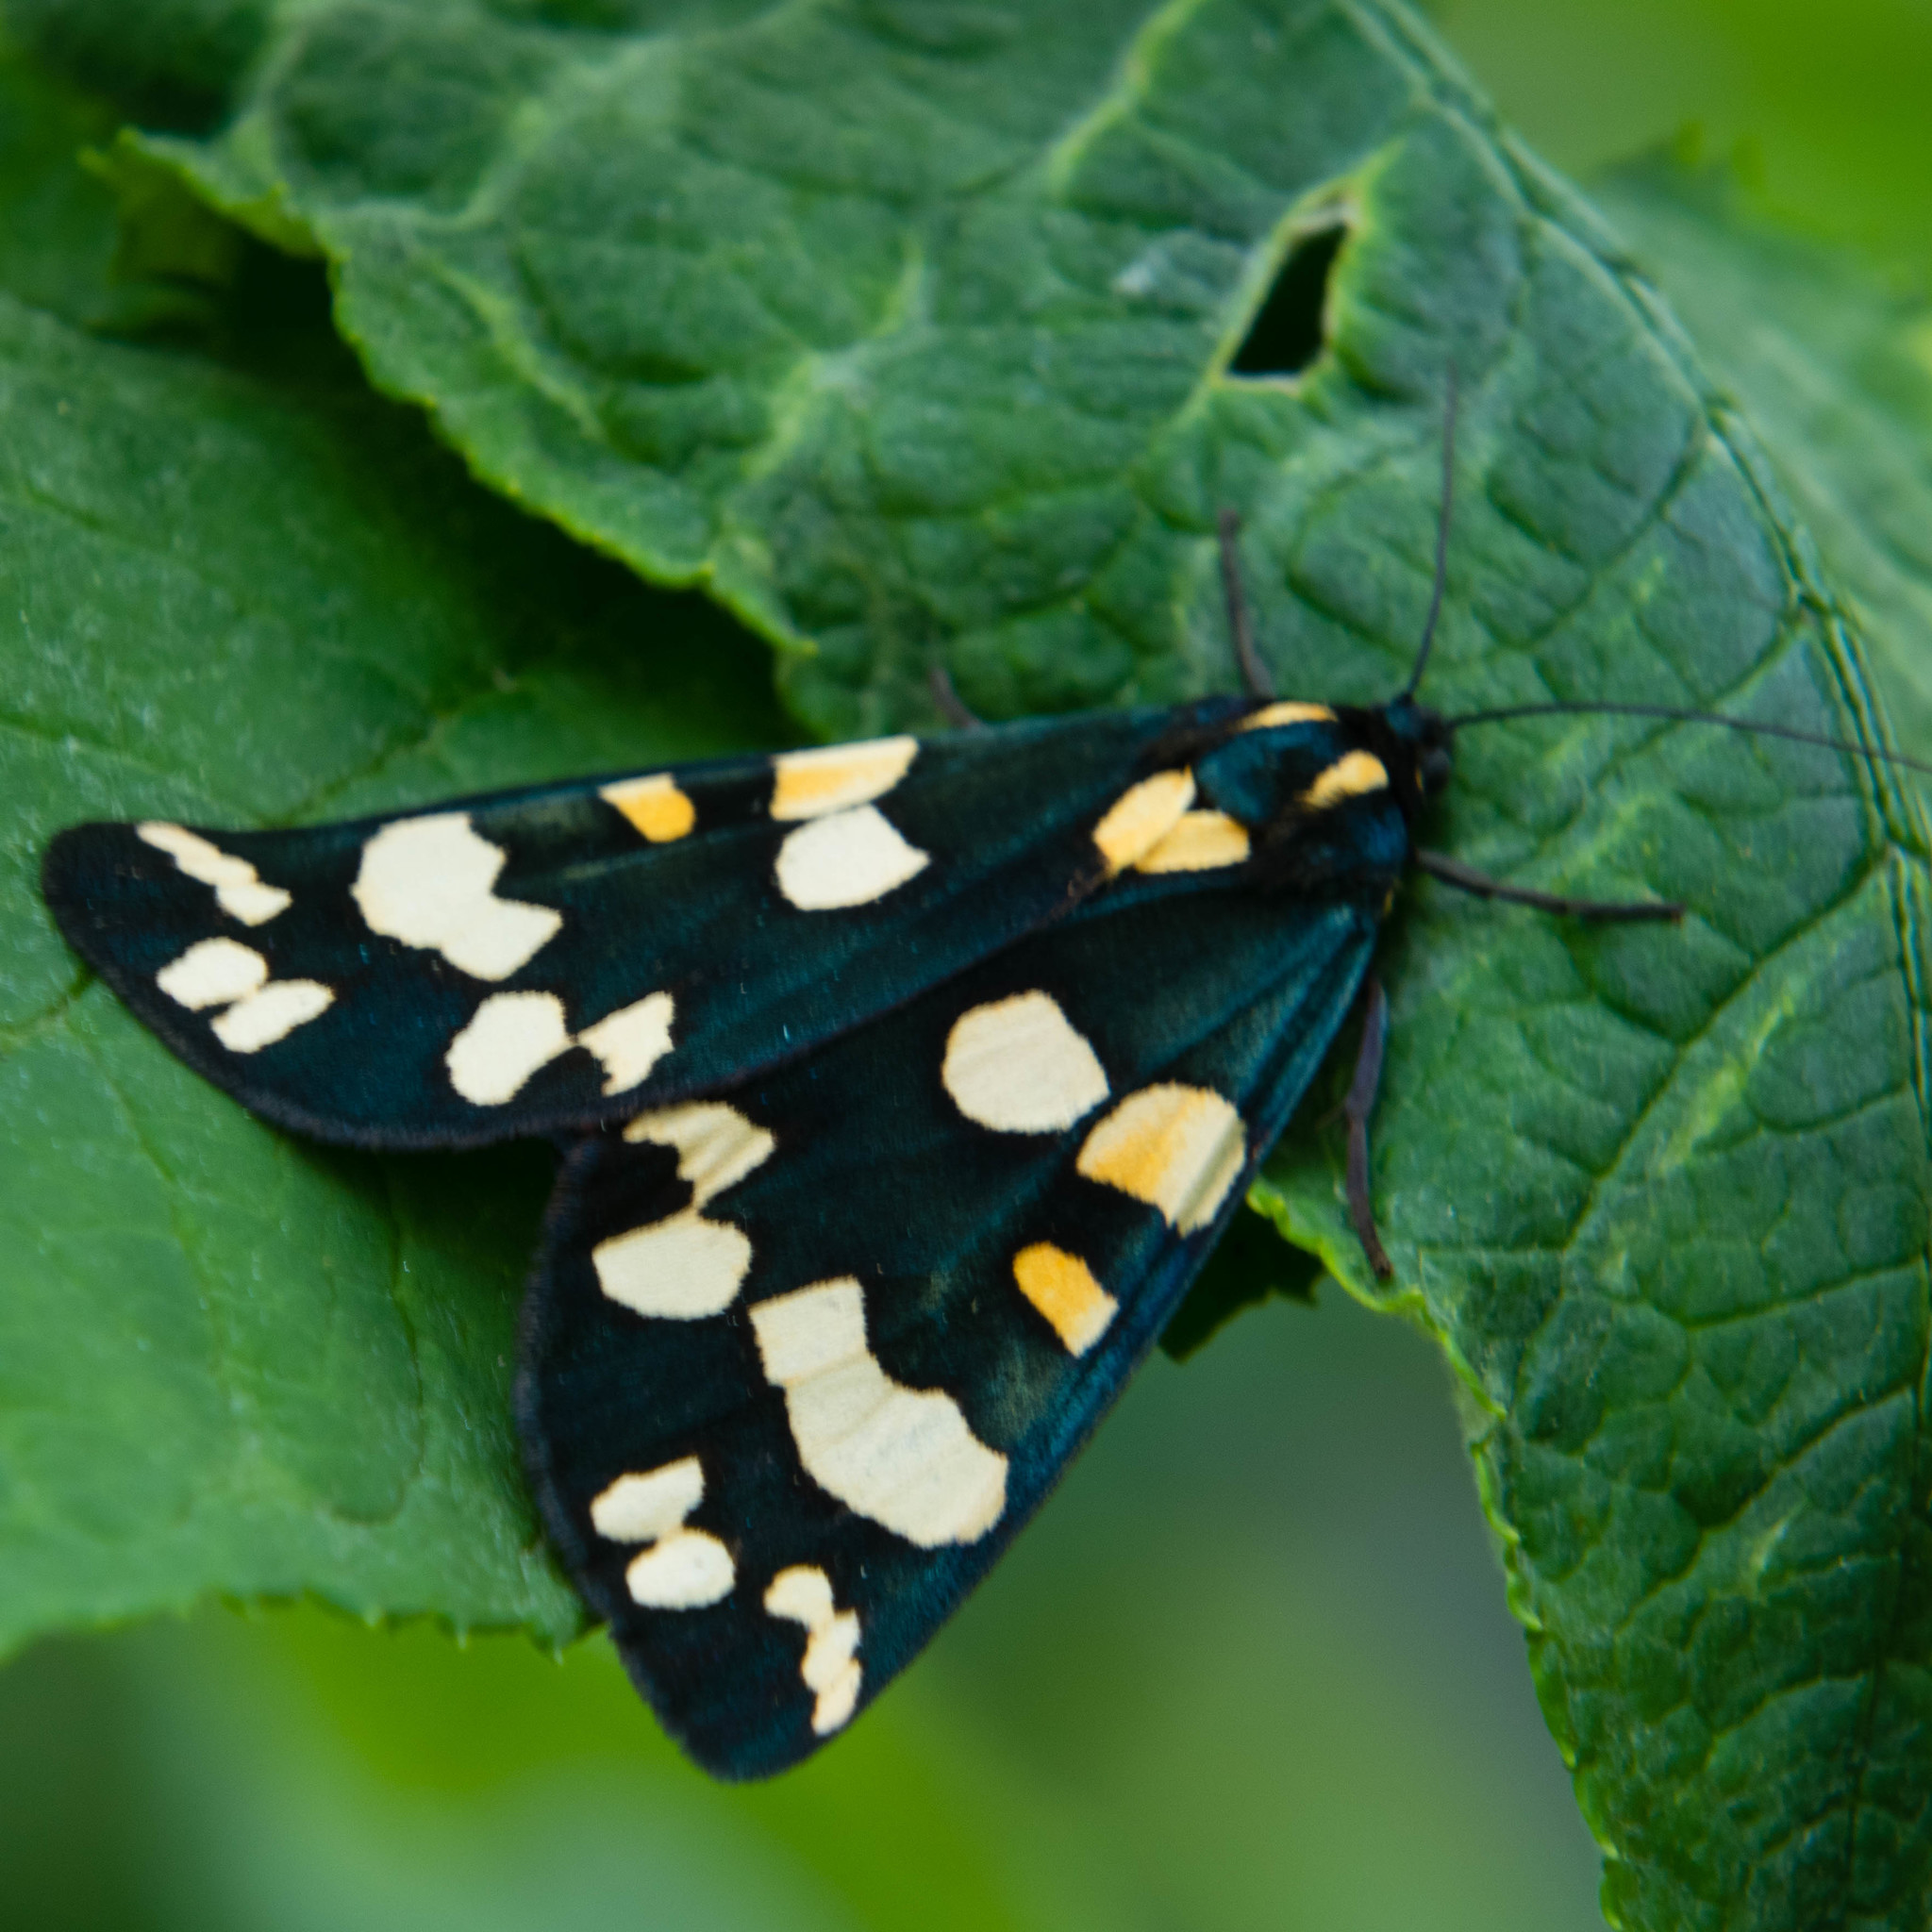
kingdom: Animalia
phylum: Arthropoda
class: Insecta
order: Lepidoptera
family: Erebidae
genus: Callimorpha
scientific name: Callimorpha dominula
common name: Scarlet tiger
